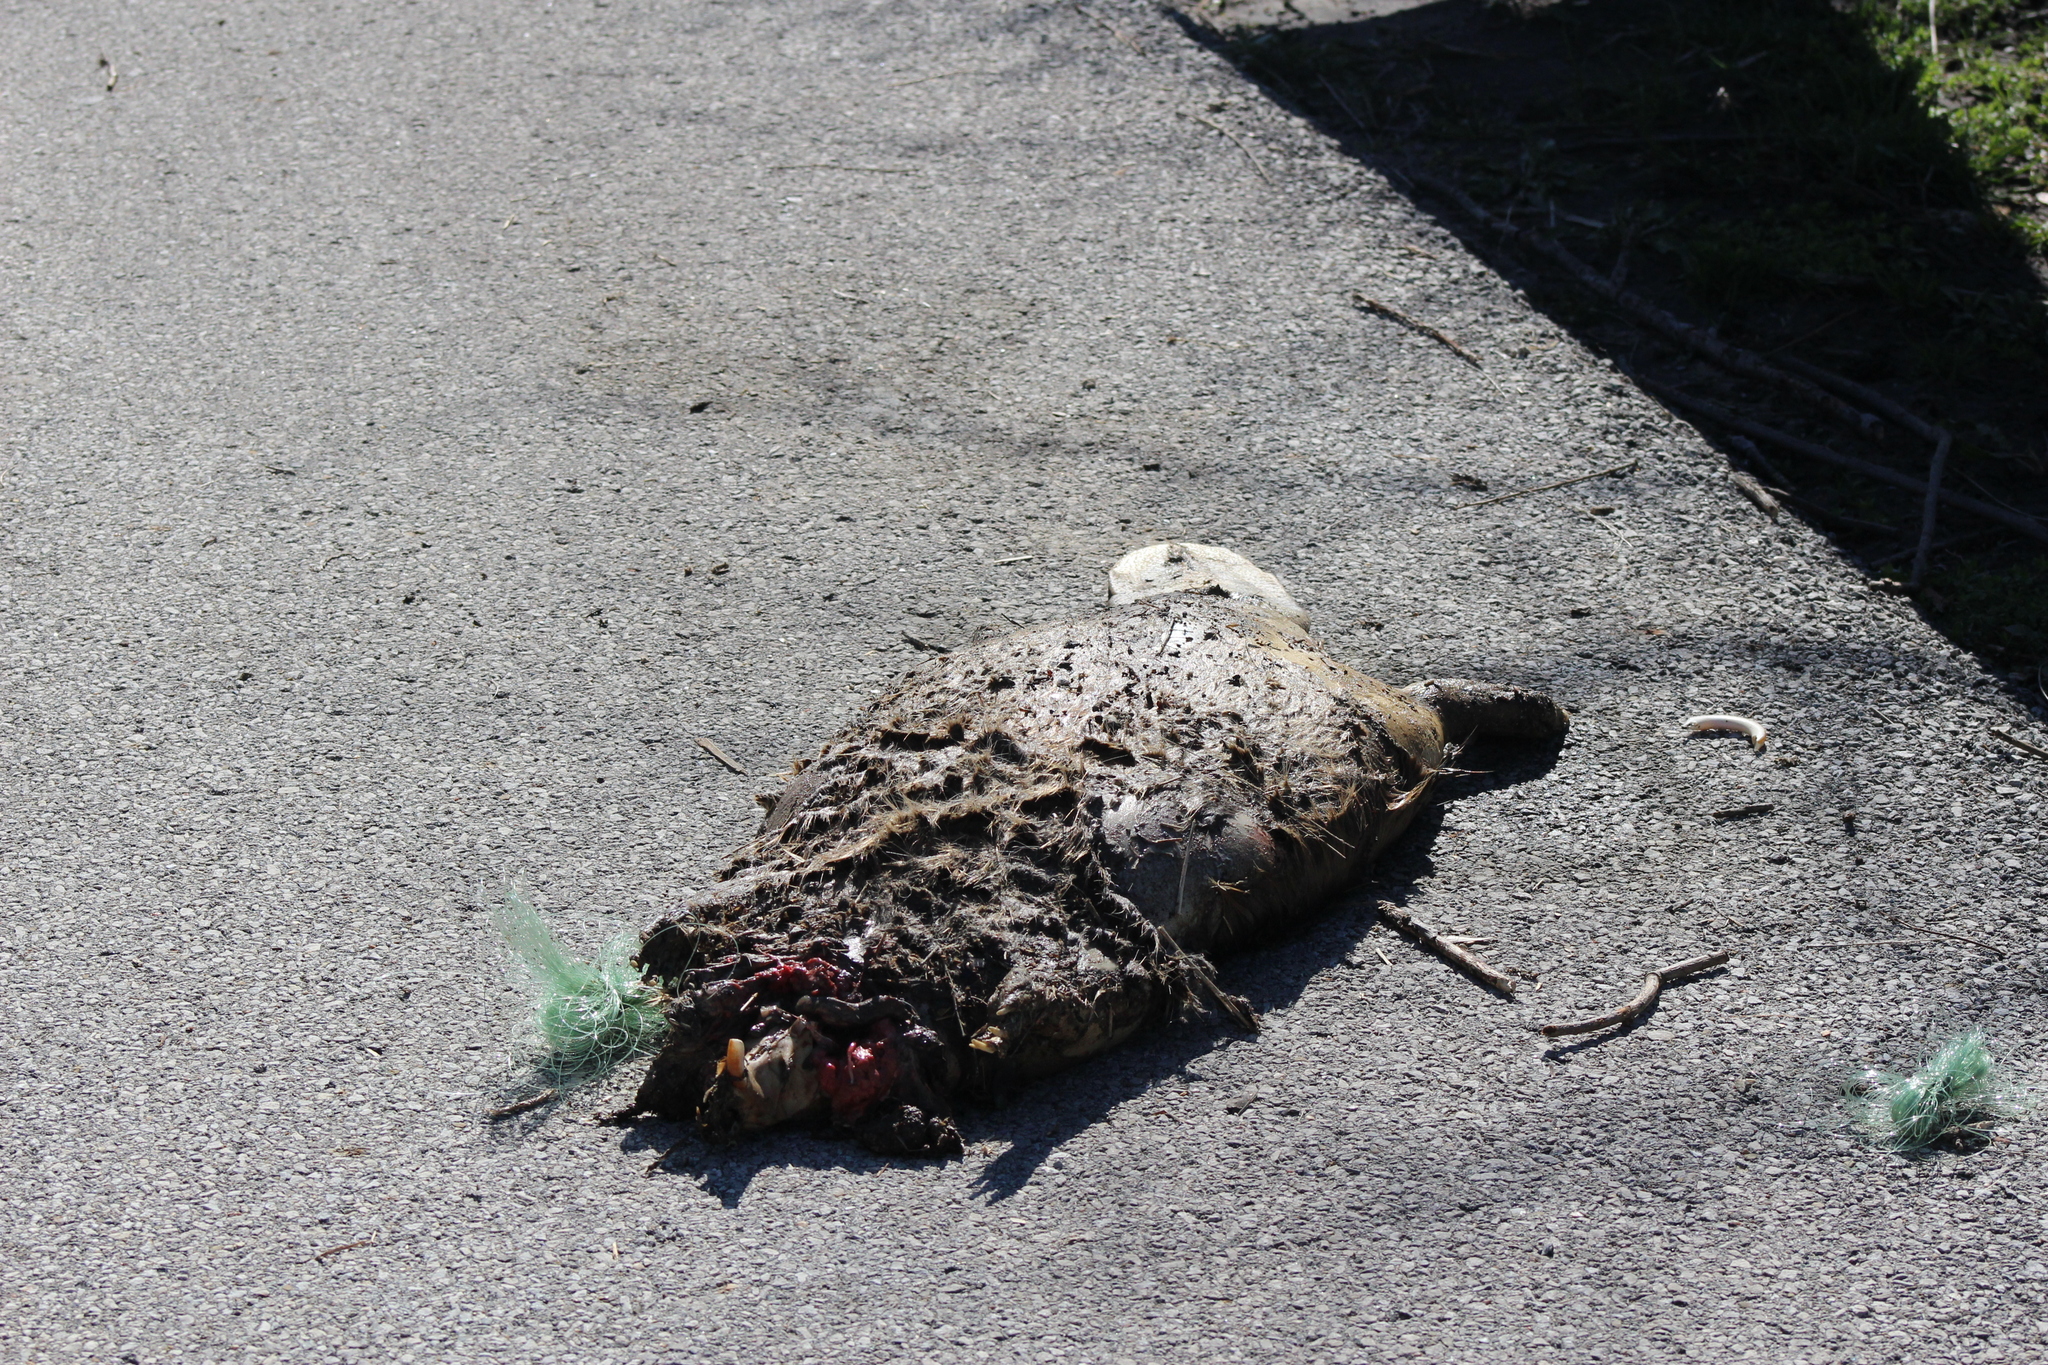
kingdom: Animalia
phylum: Chordata
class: Mammalia
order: Rodentia
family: Castoridae
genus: Castor
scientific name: Castor canadensis
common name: American beaver
